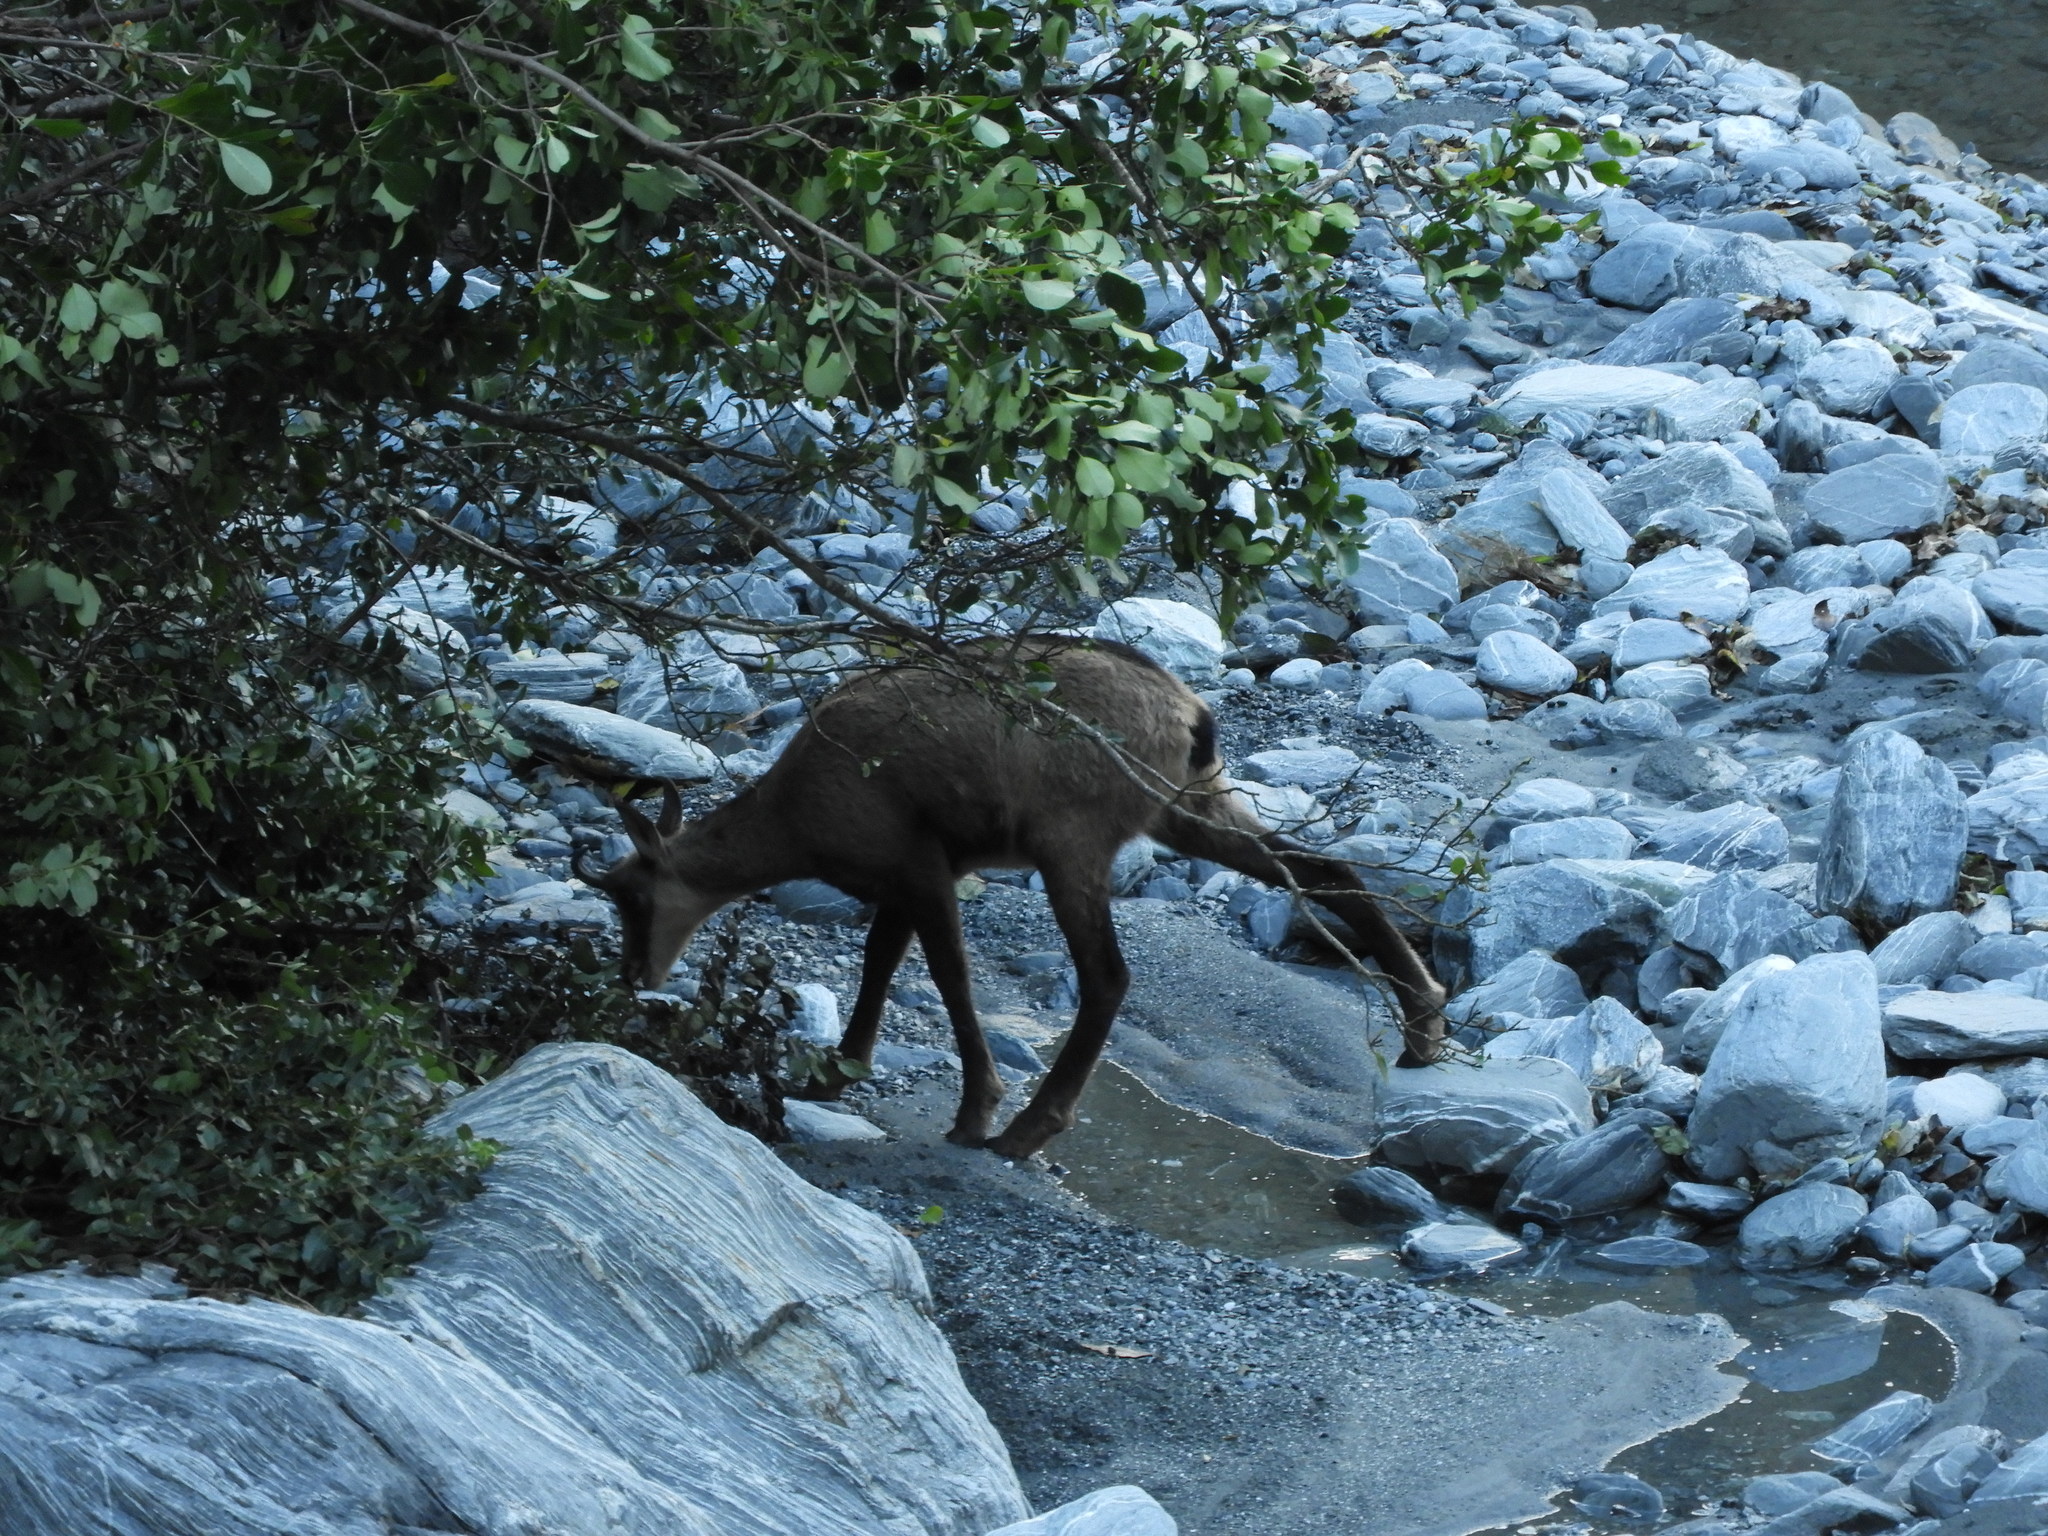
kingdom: Animalia
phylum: Chordata
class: Mammalia
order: Artiodactyla
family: Bovidae
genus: Rupicapra
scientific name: Rupicapra rupicapra
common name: Chamois
